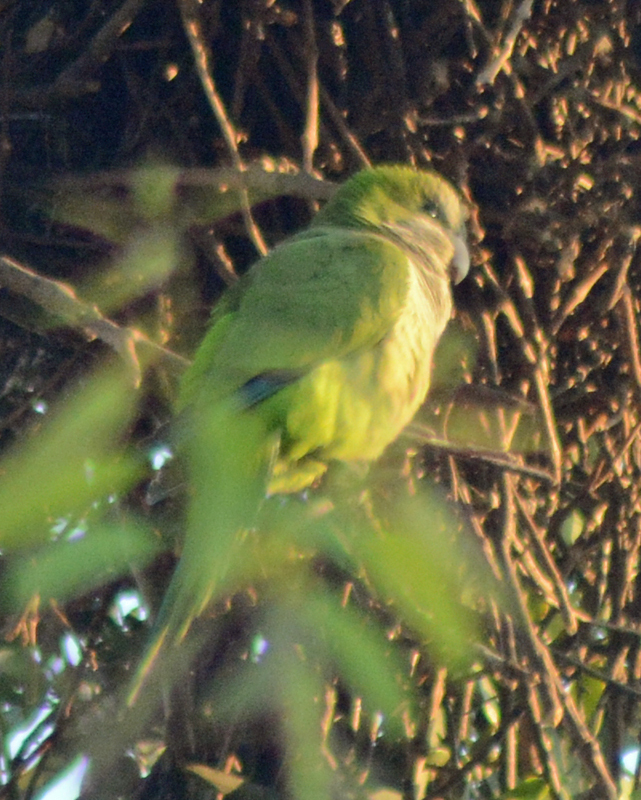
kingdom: Animalia
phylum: Chordata
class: Aves
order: Psittaciformes
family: Psittacidae
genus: Myiopsitta
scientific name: Myiopsitta monachus
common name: Monk parakeet
